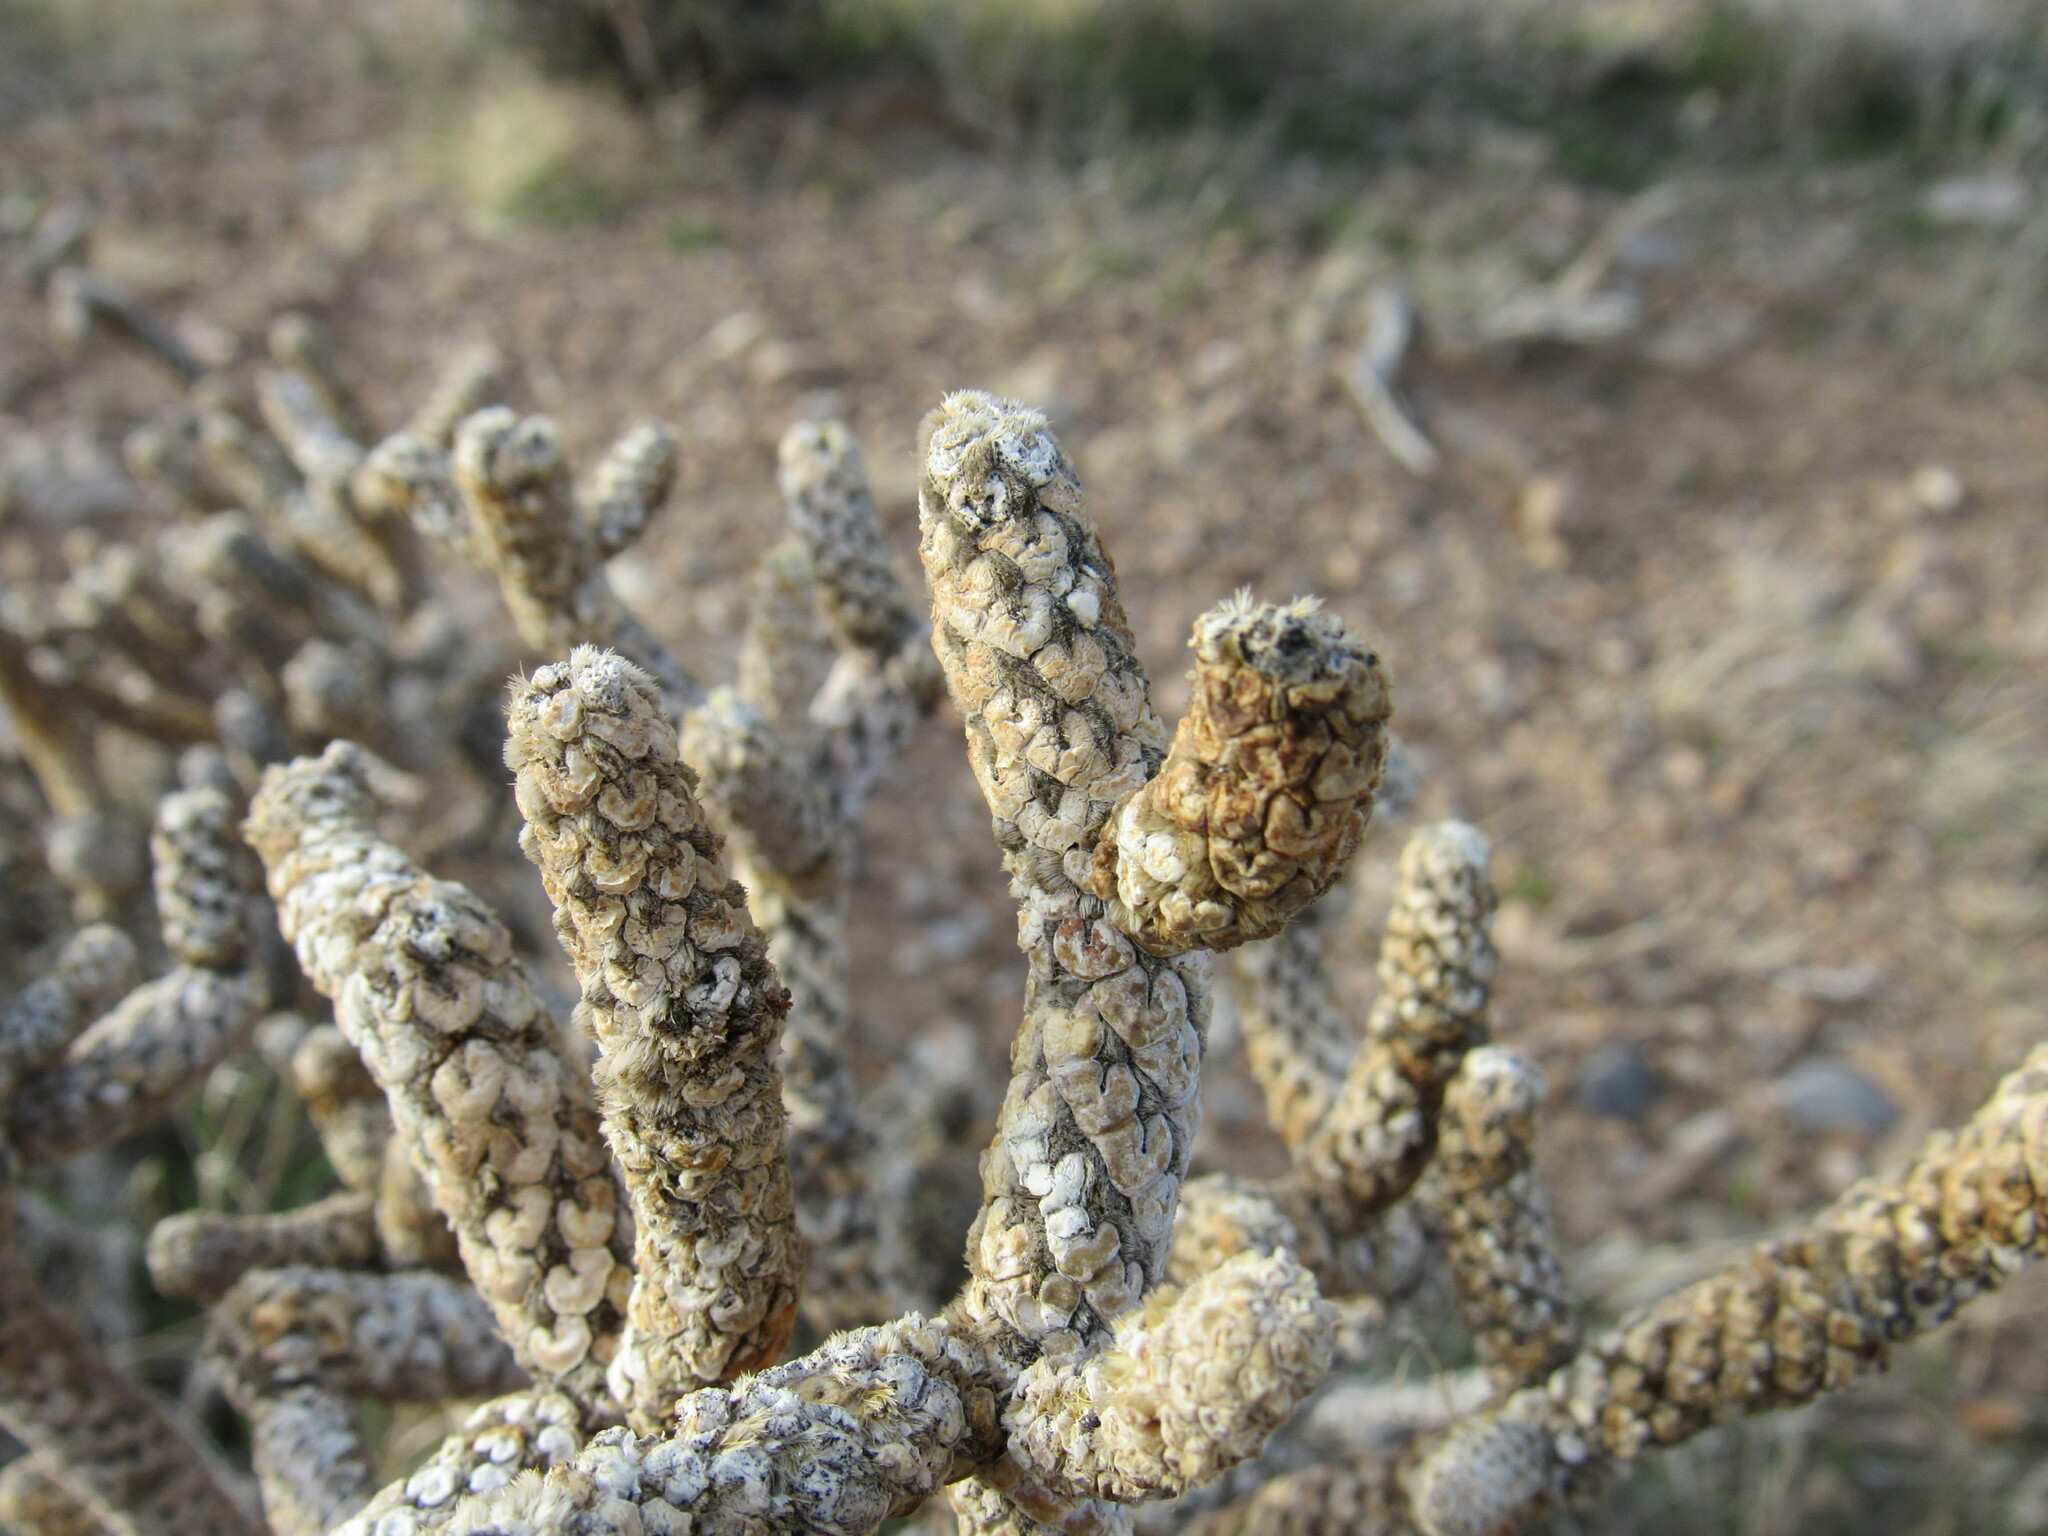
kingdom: Plantae
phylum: Tracheophyta
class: Magnoliopsida
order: Caryophyllales
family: Cactaceae
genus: Cylindropuntia
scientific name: Cylindropuntia ramosissima
